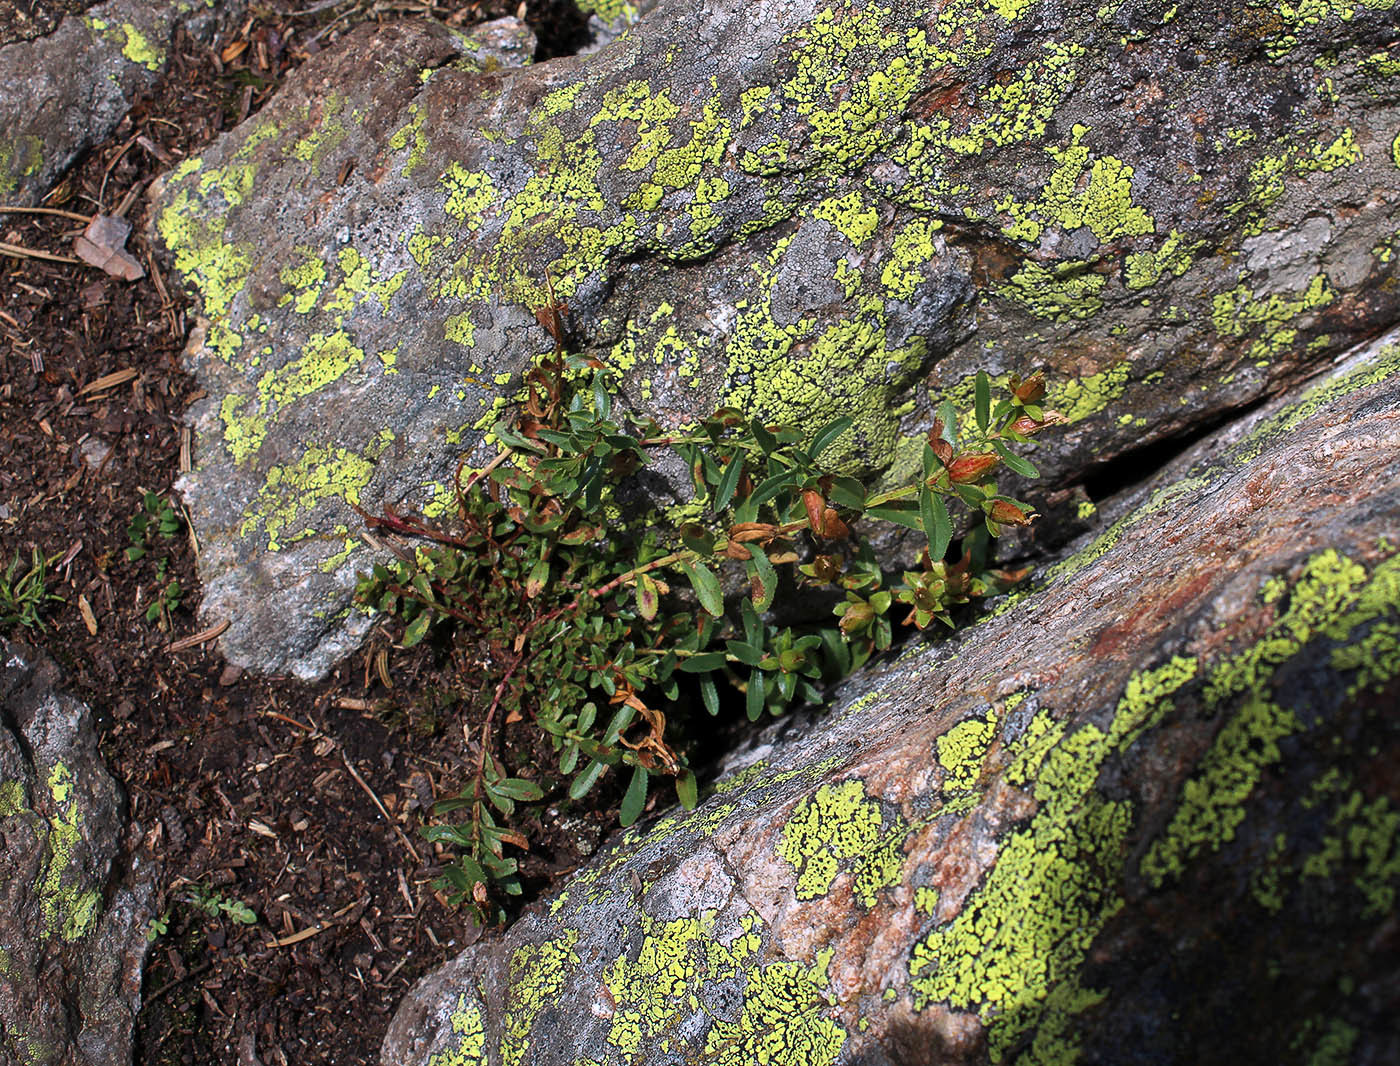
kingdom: Plantae
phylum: Tracheophyta
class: Magnoliopsida
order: Malpighiales
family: Hypericaceae
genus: Hypericum
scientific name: Hypericum orientale
